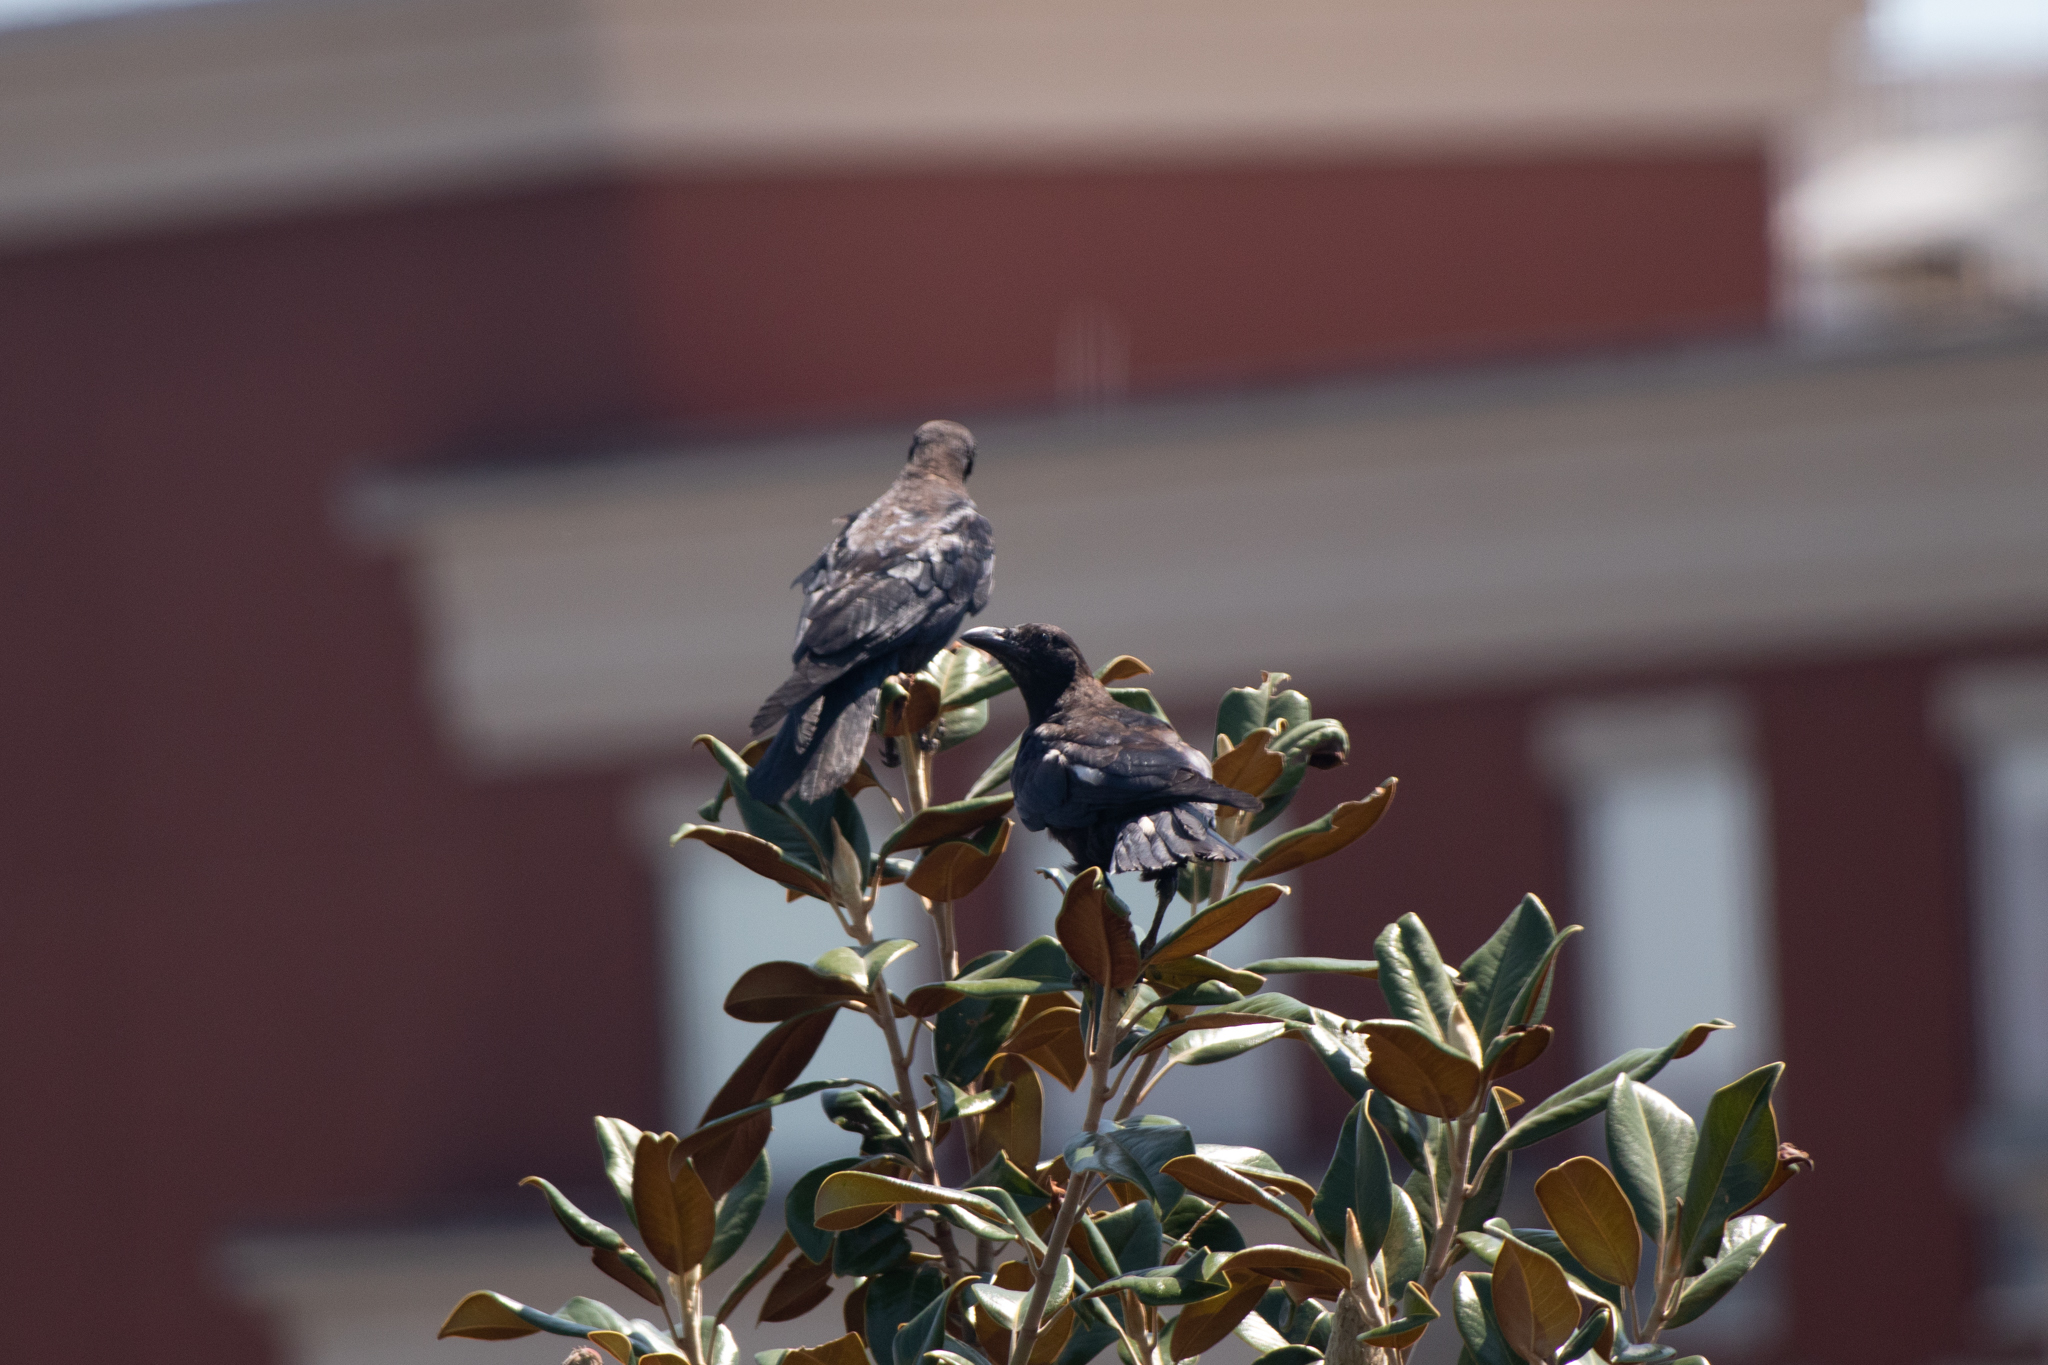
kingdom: Animalia
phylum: Chordata
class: Aves
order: Passeriformes
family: Icteridae
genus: Quiscalus
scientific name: Quiscalus quiscula
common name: Common grackle
